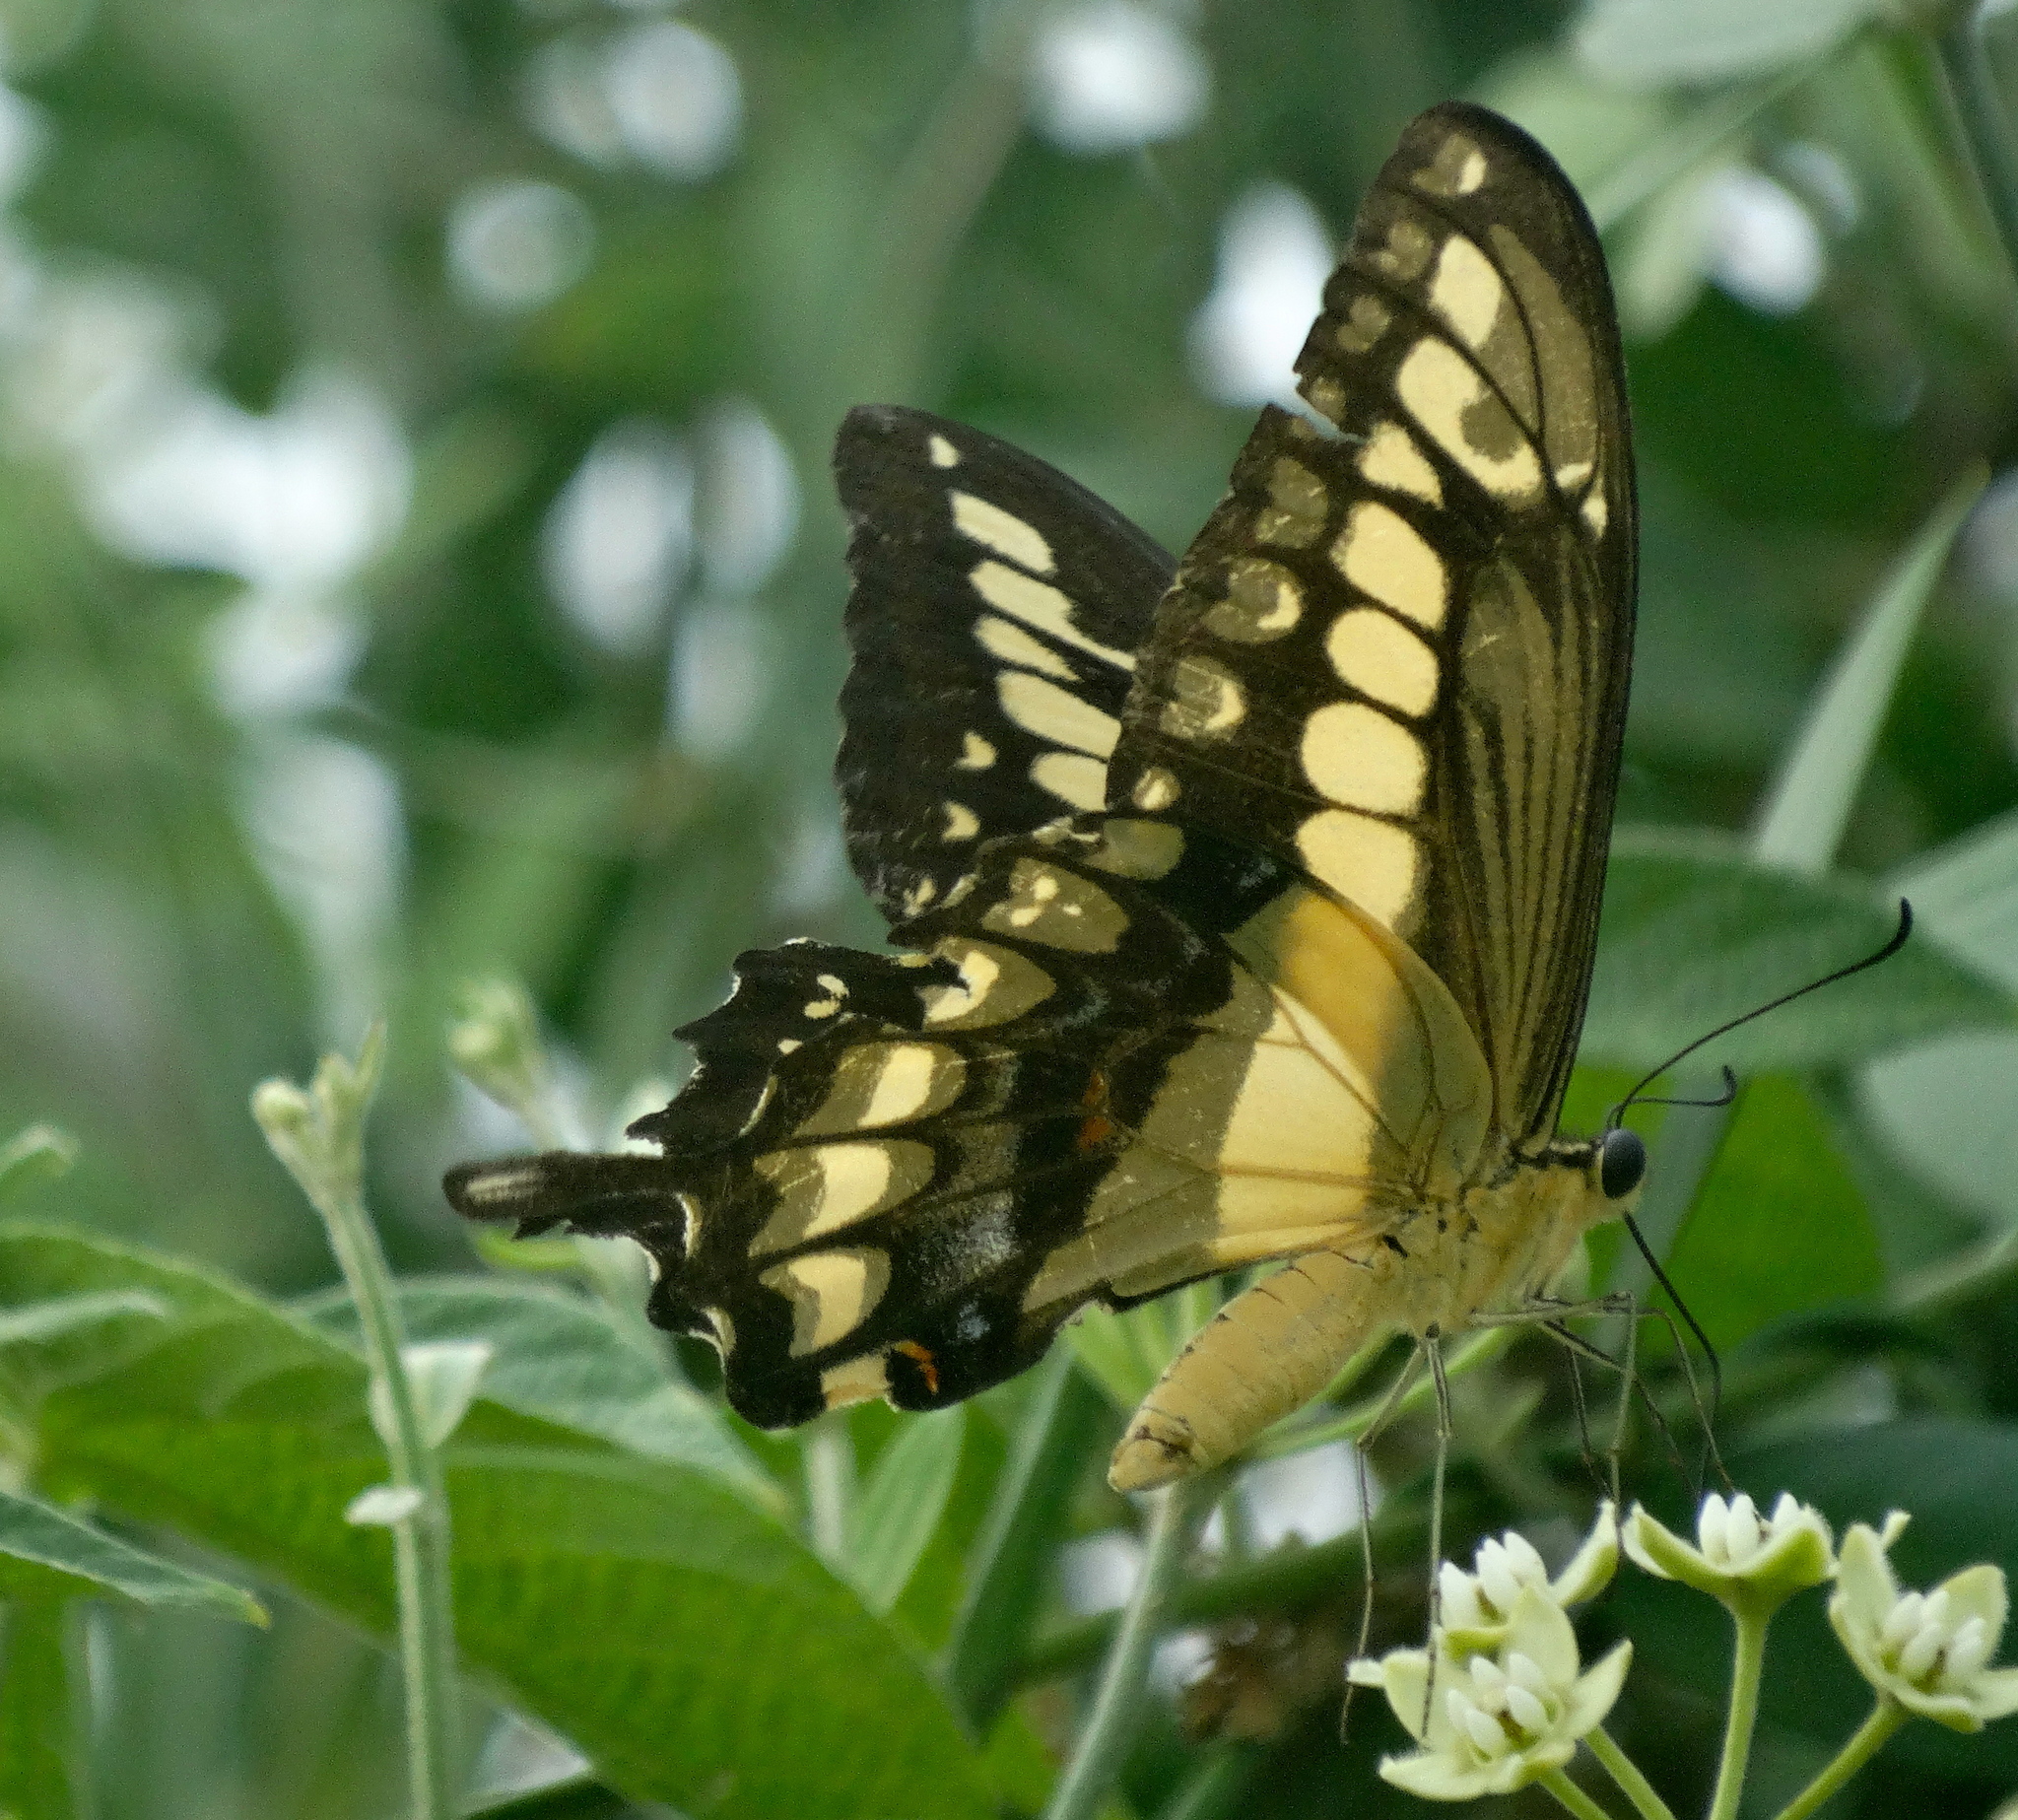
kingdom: Animalia
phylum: Arthropoda
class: Insecta
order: Lepidoptera
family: Papilionidae
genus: Papilio
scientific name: Papilio thoas
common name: King swallowtail
